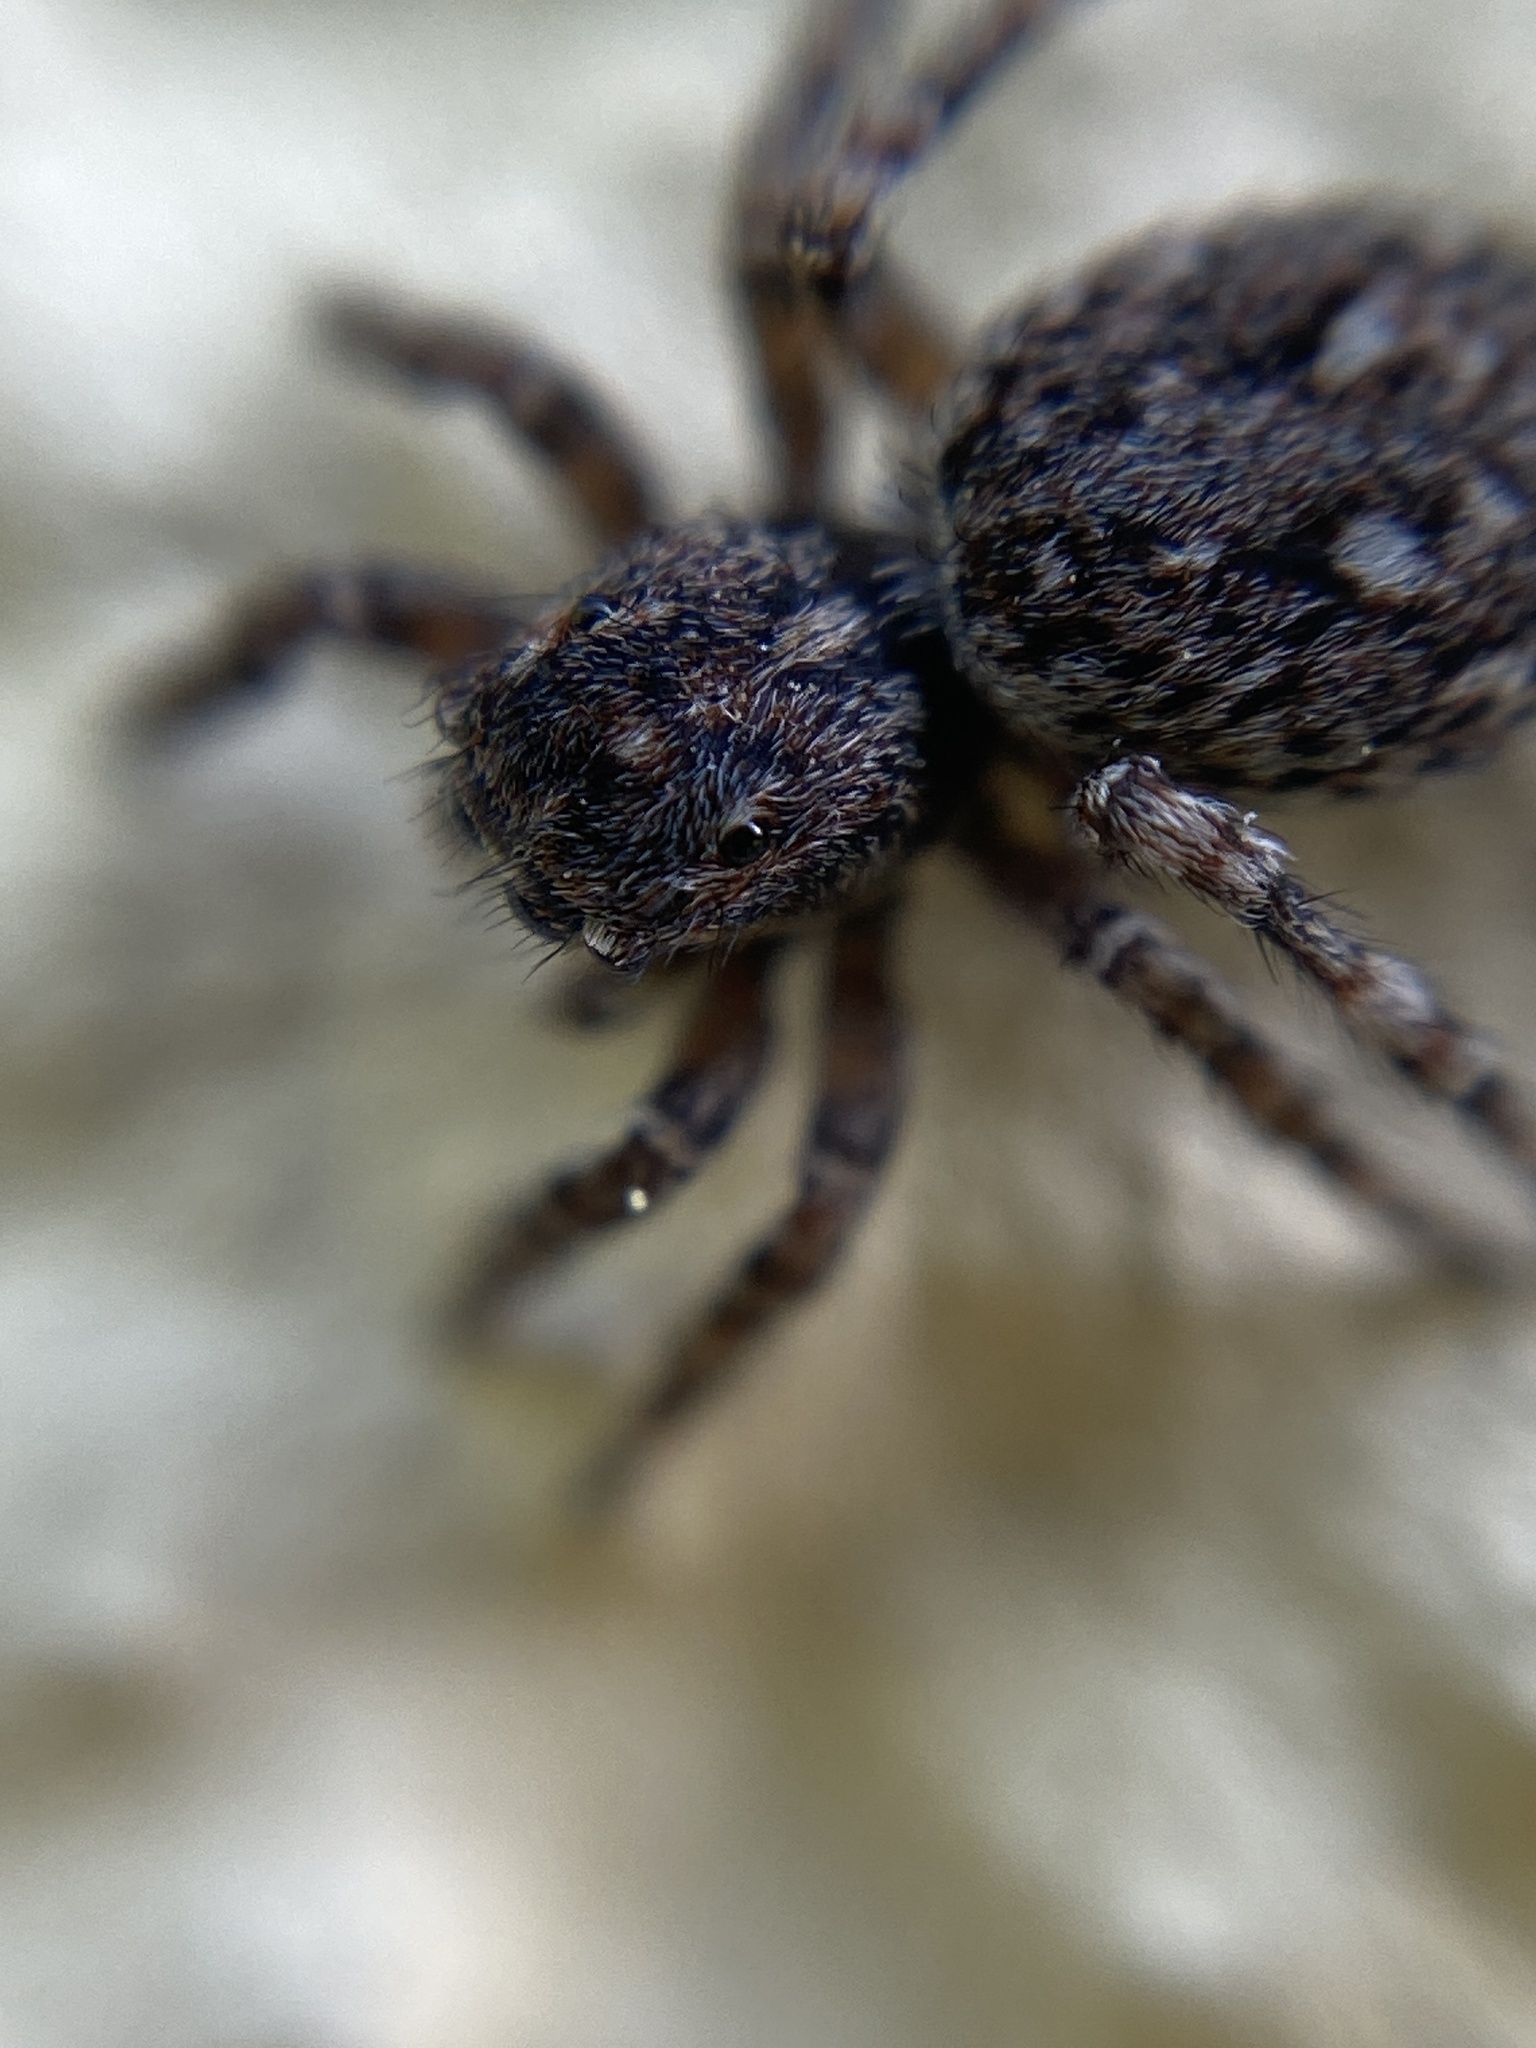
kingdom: Animalia
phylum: Arthropoda
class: Arachnida
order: Araneae
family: Salticidae
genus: Attulus
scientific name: Attulus pubescens
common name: Jumping spider
